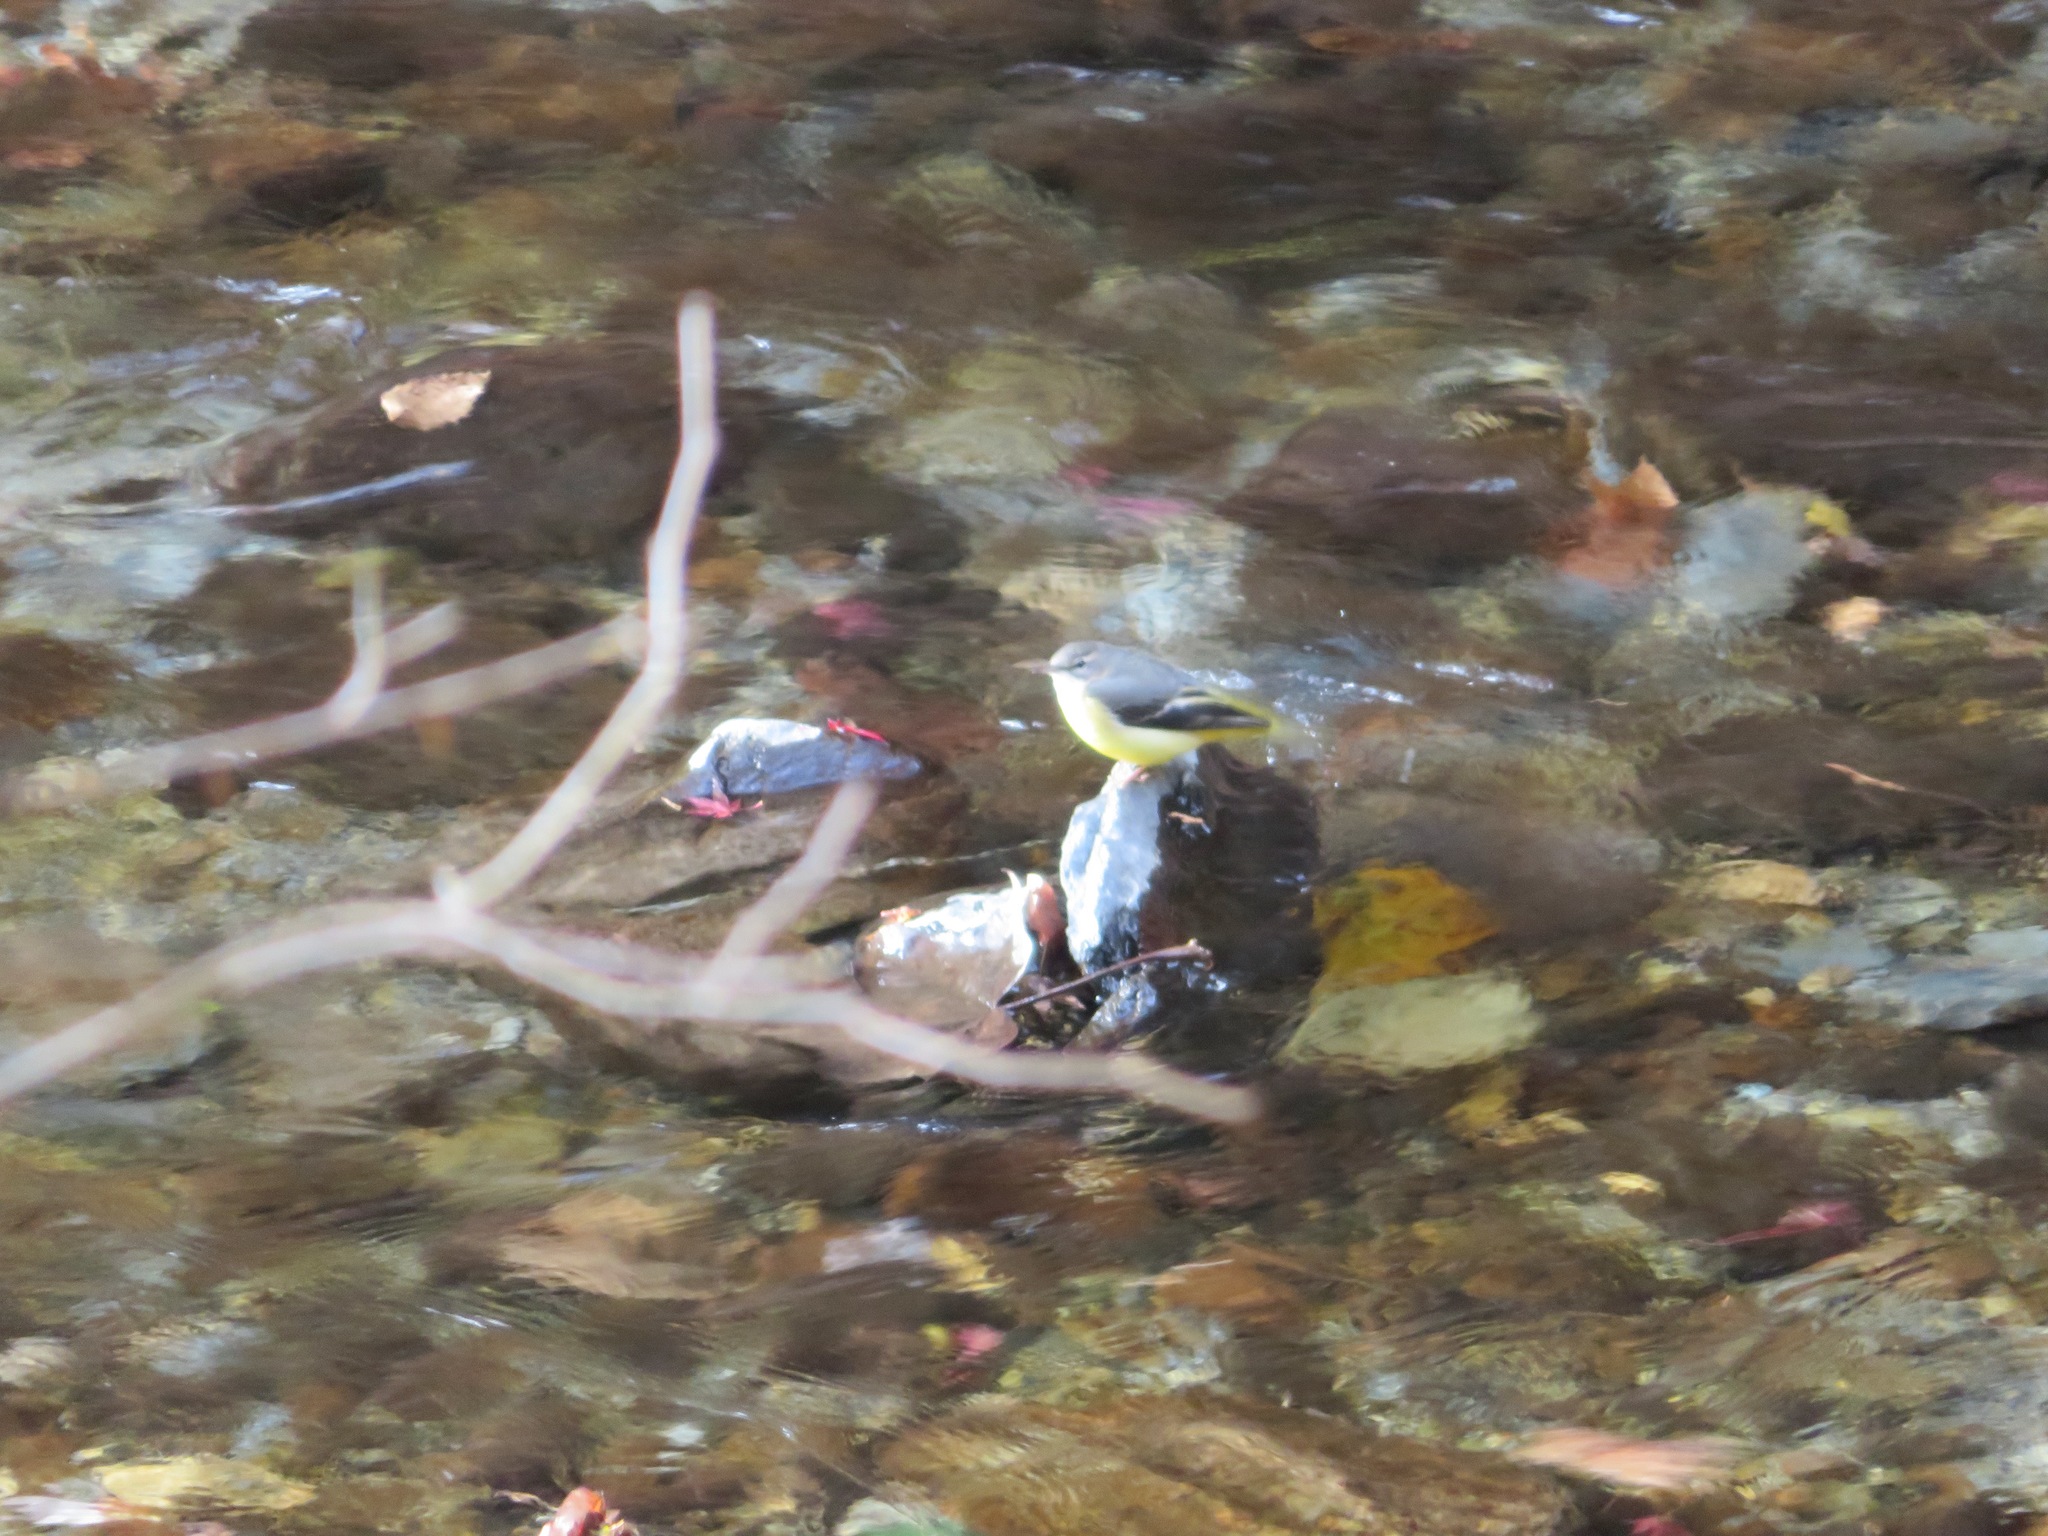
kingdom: Animalia
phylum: Chordata
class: Aves
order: Passeriformes
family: Motacillidae
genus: Motacilla
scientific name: Motacilla cinerea
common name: Grey wagtail
